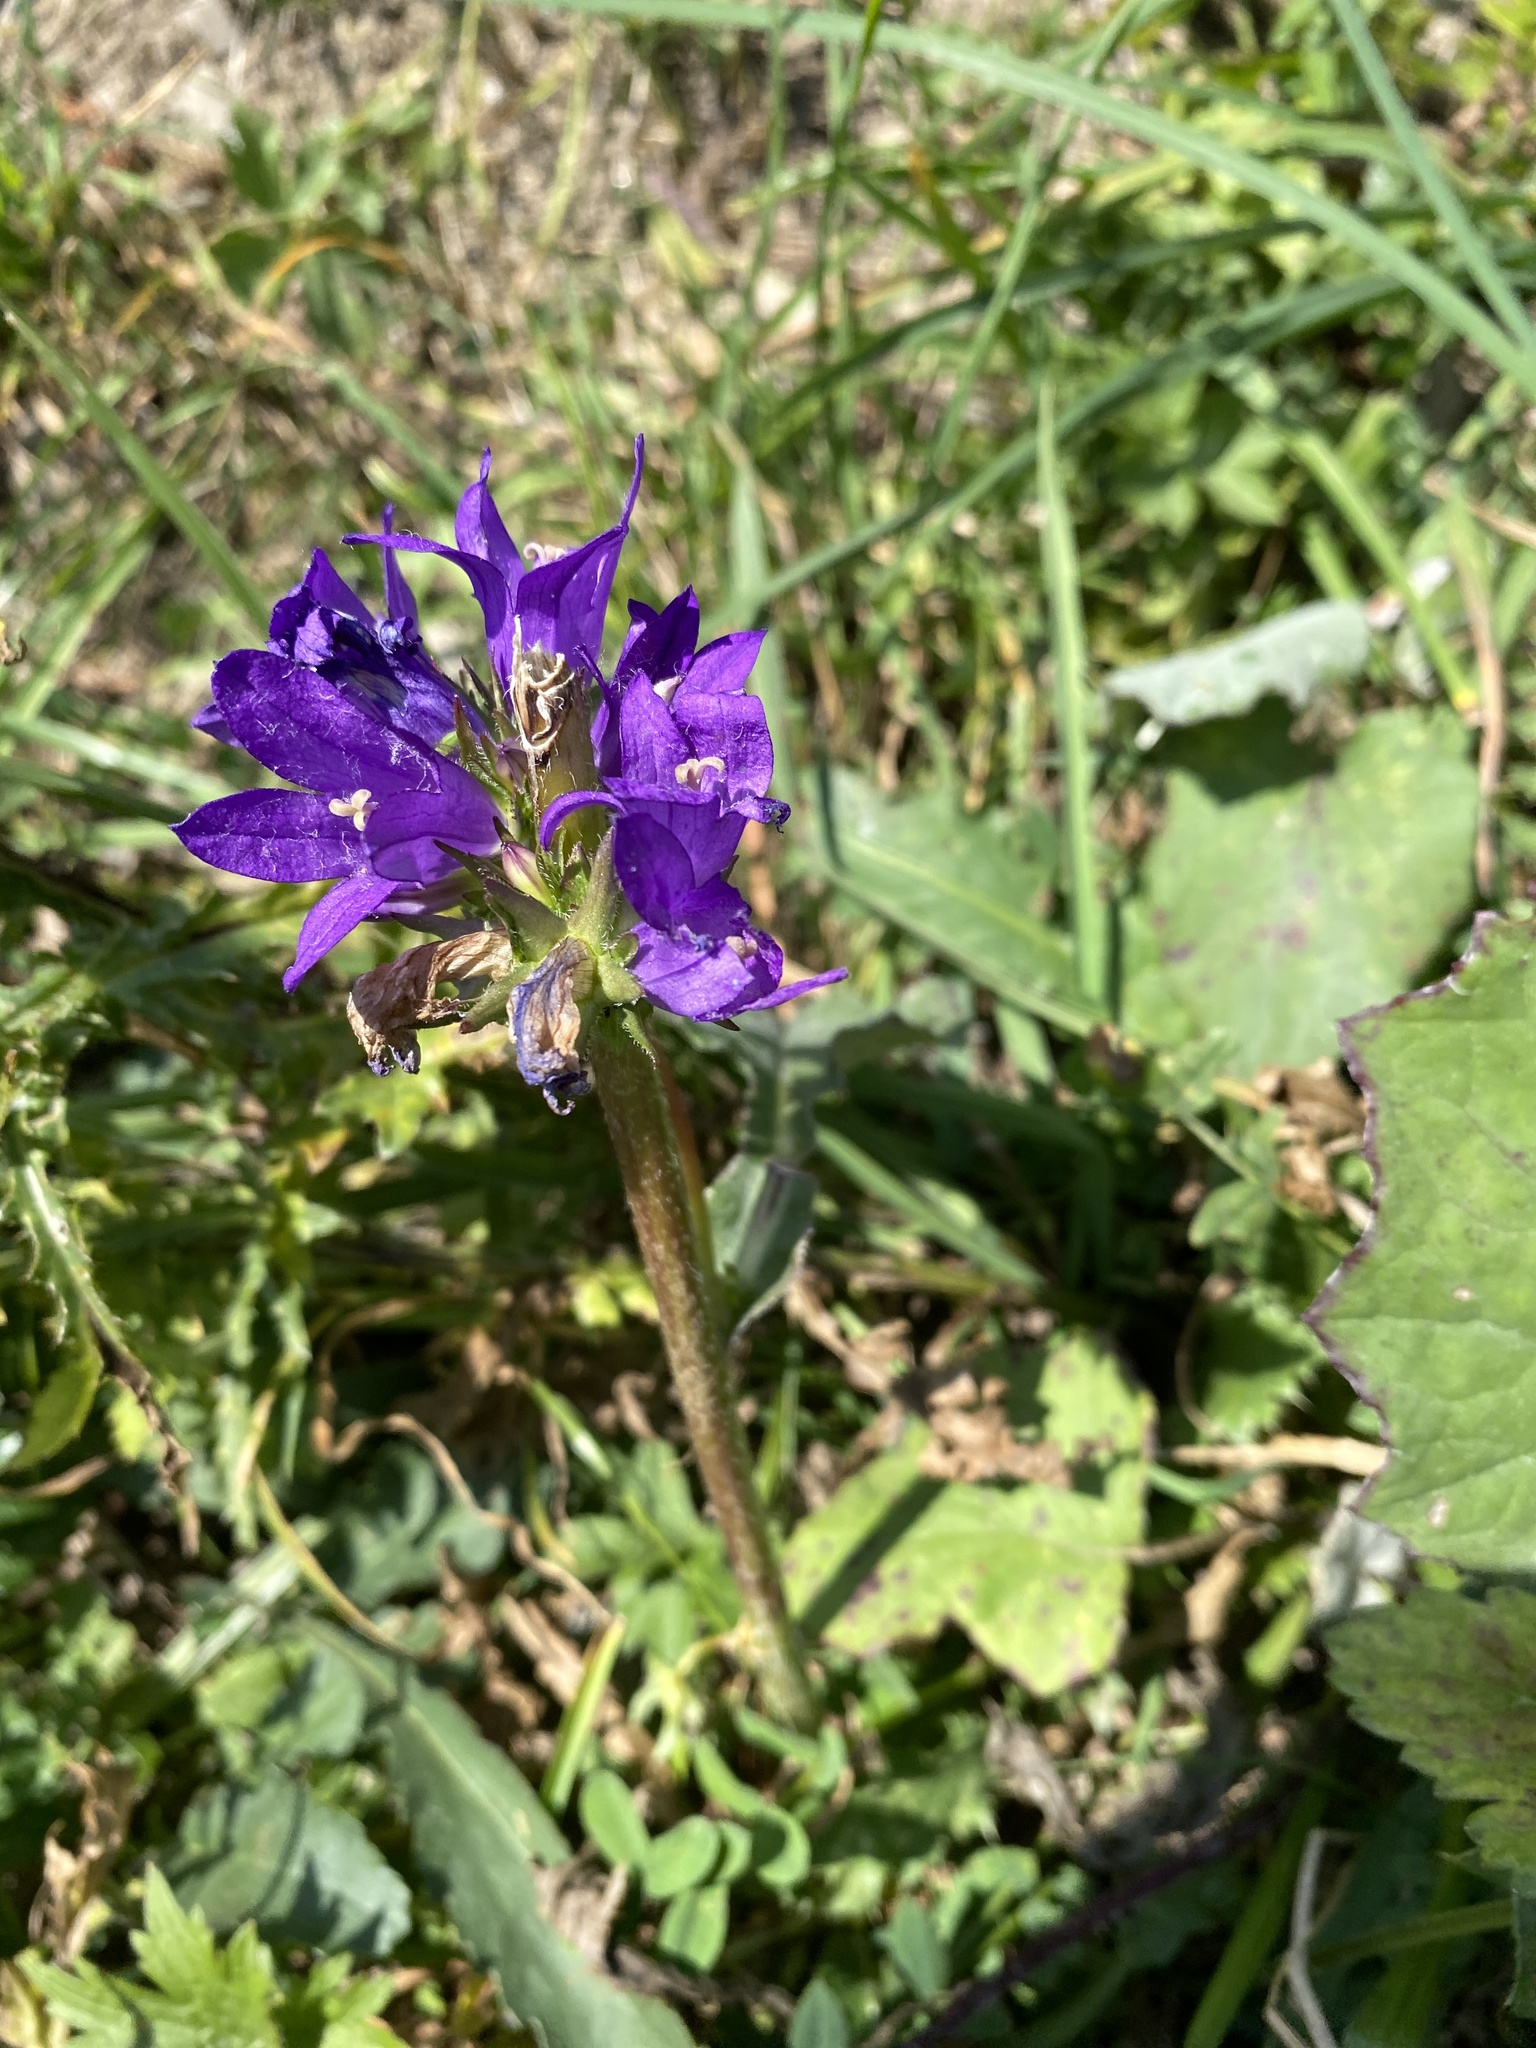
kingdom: Plantae
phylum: Tracheophyta
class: Magnoliopsida
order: Asterales
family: Campanulaceae
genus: Campanula
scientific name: Campanula glomerata
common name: Clustered bellflower
